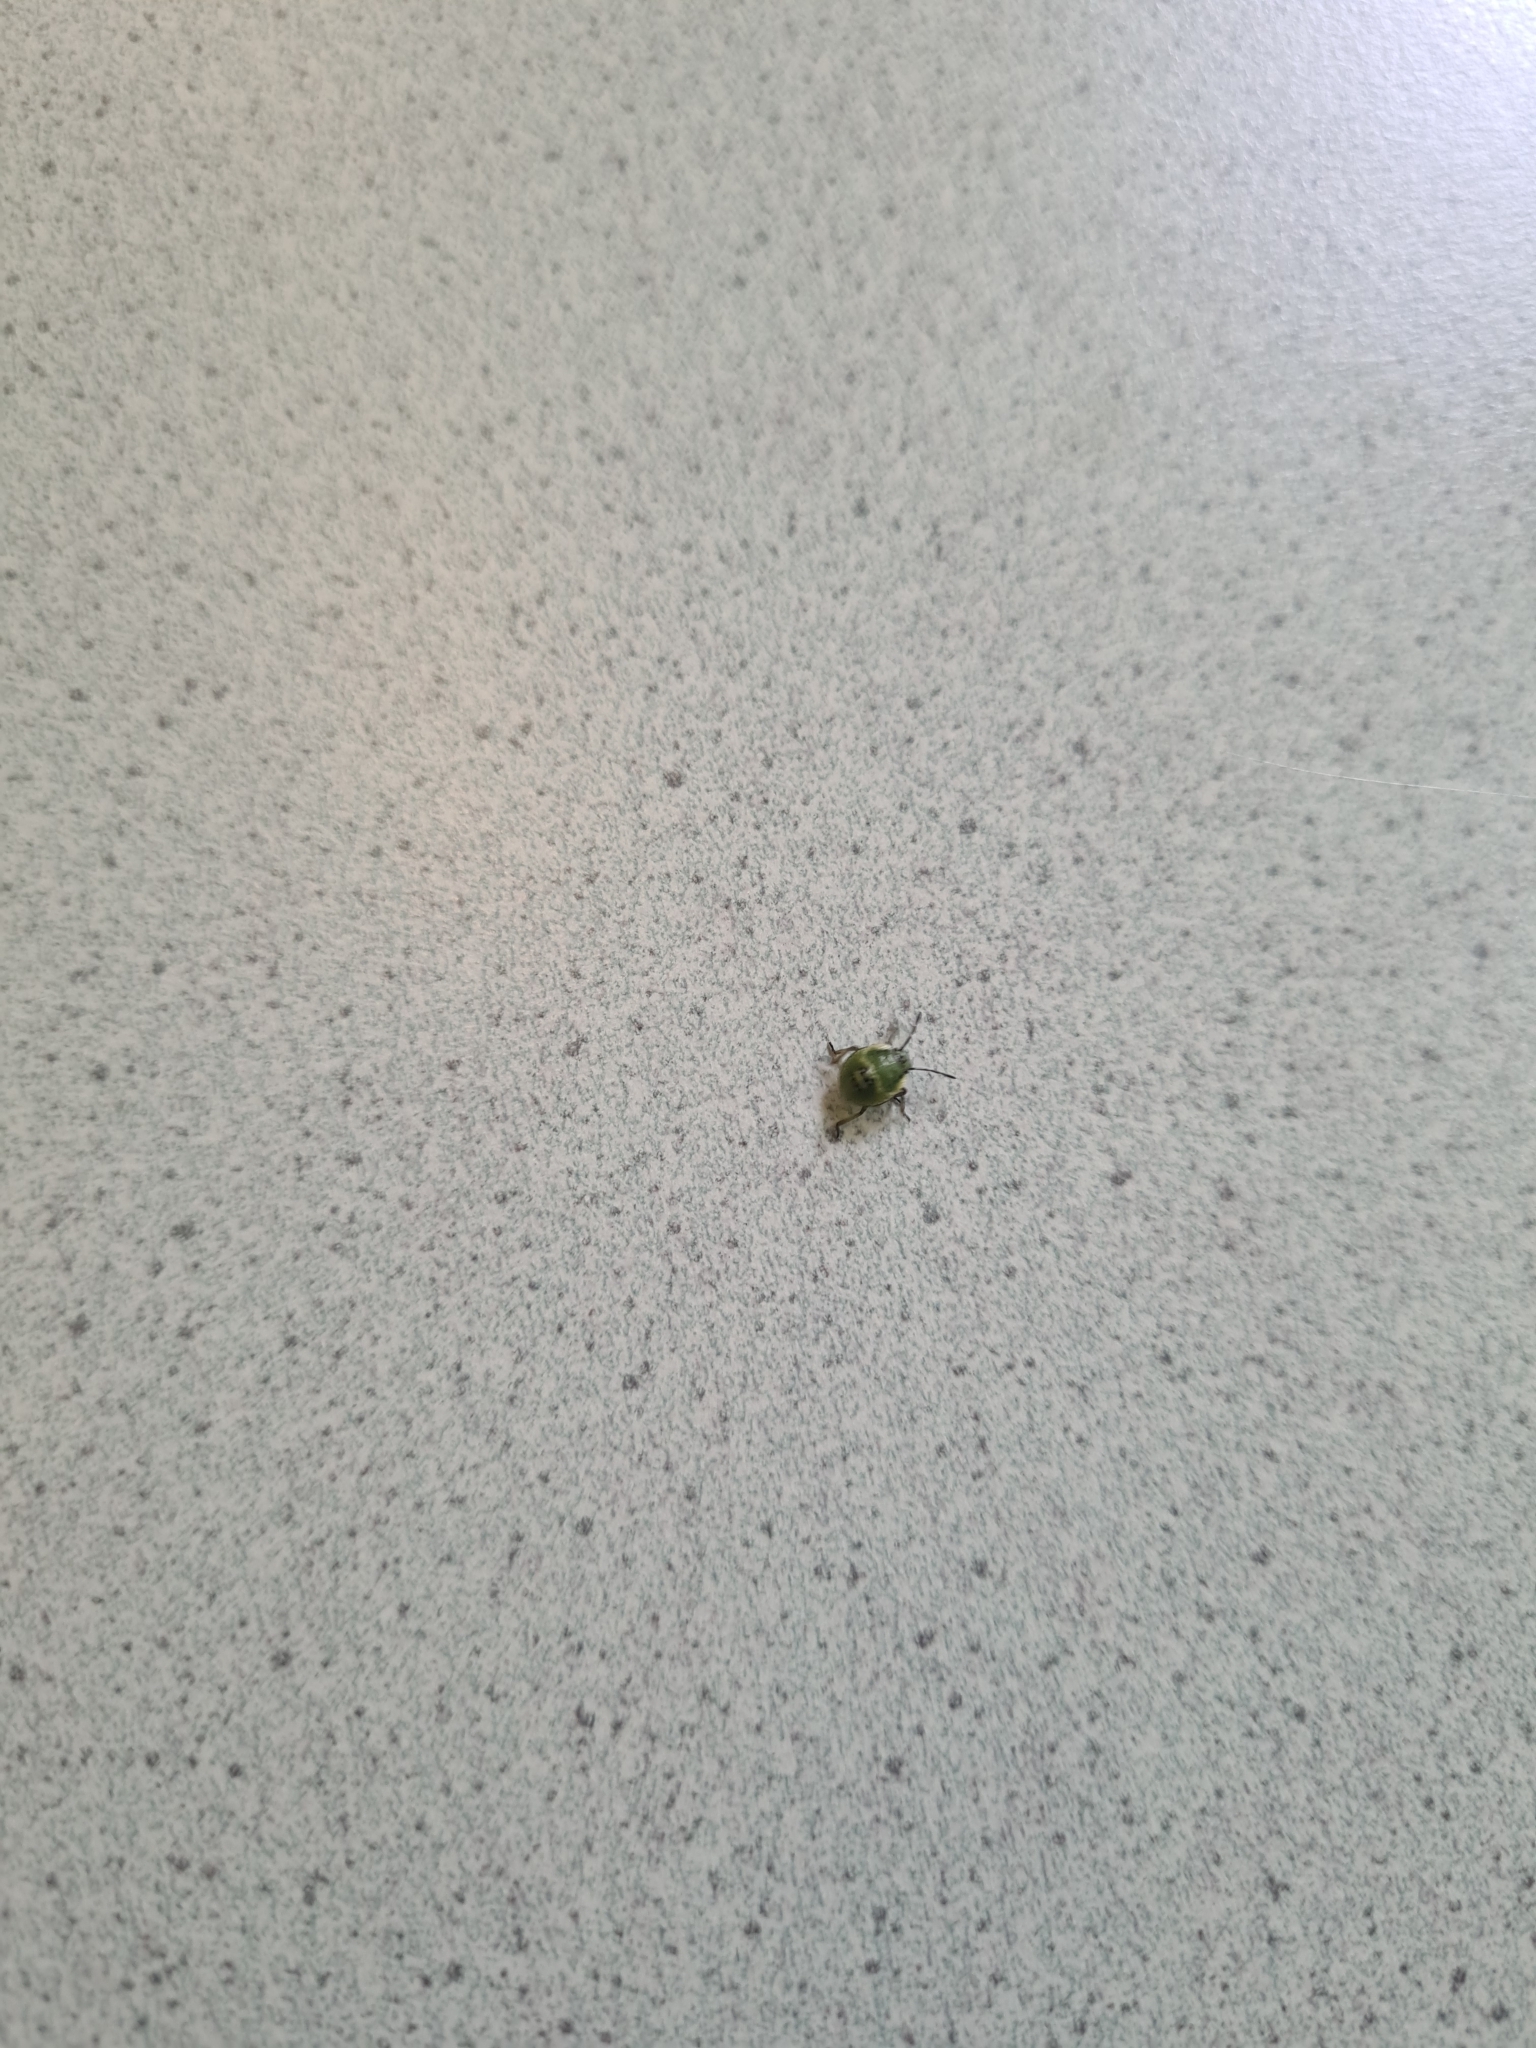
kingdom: Animalia
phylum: Arthropoda
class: Insecta
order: Hemiptera
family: Pentatomidae
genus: Palomena
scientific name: Palomena prasina
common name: Green shieldbug
